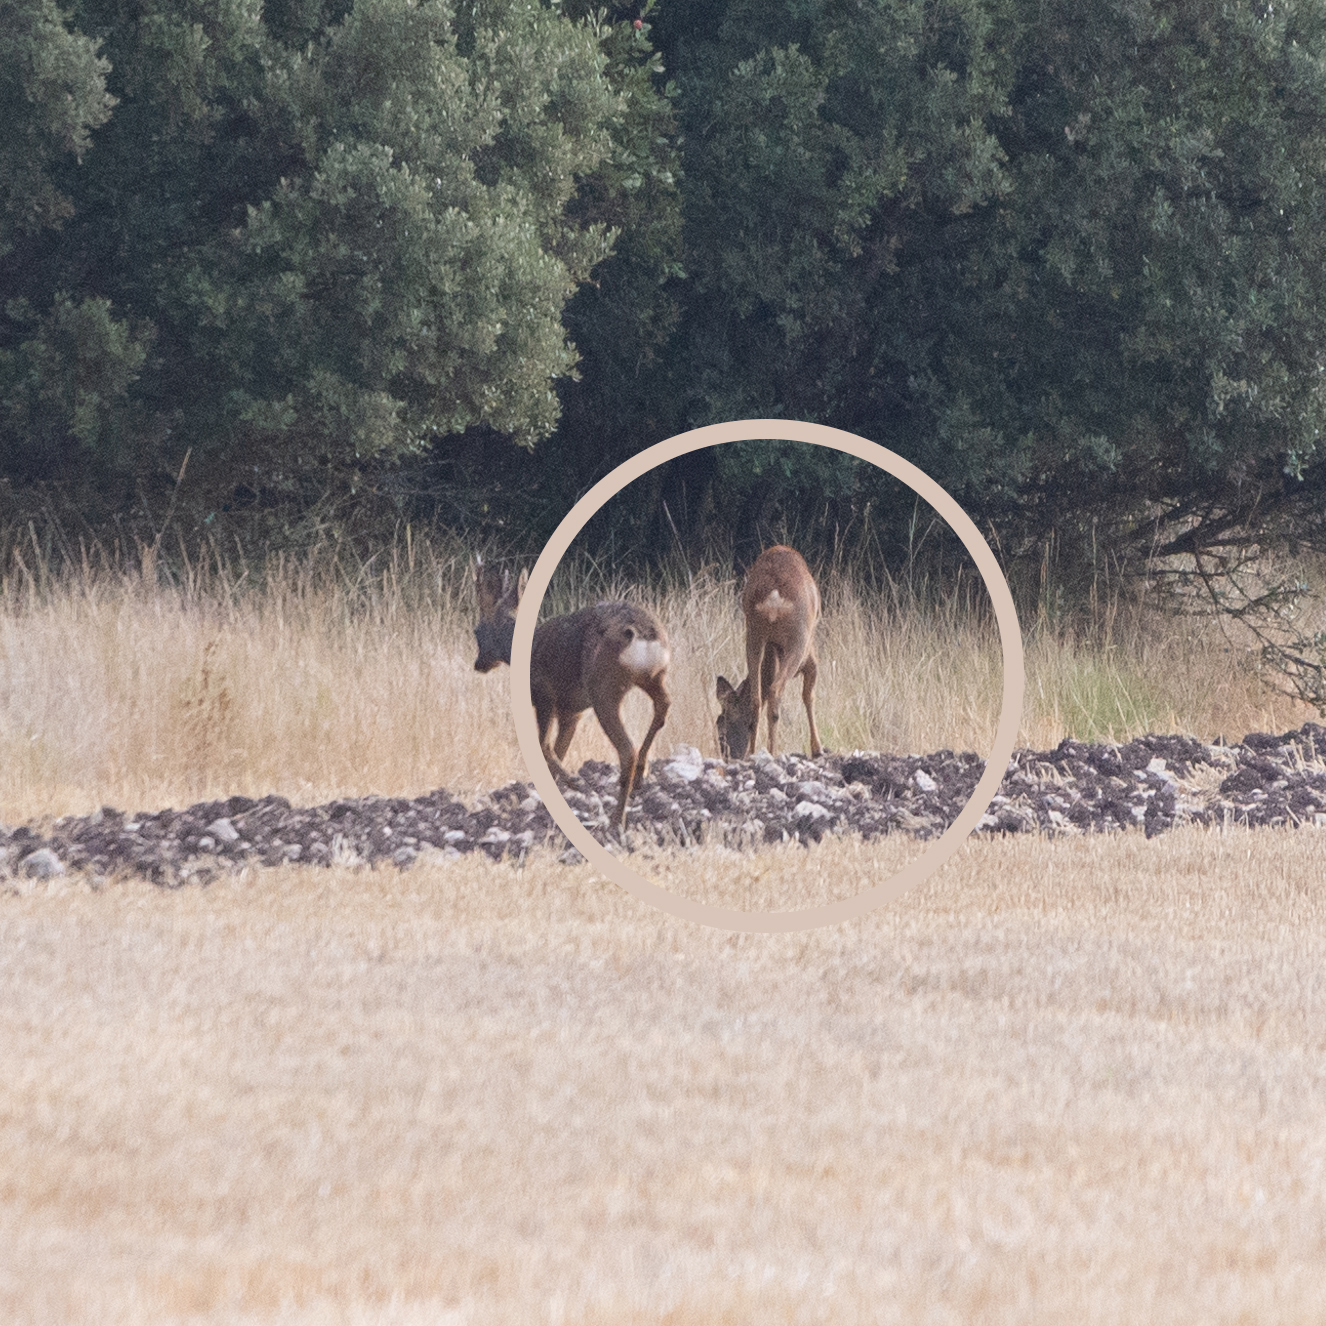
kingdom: Animalia
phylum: Chordata
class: Mammalia
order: Artiodactyla
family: Cervidae
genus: Capreolus
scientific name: Capreolus capreolus
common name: Western roe deer
